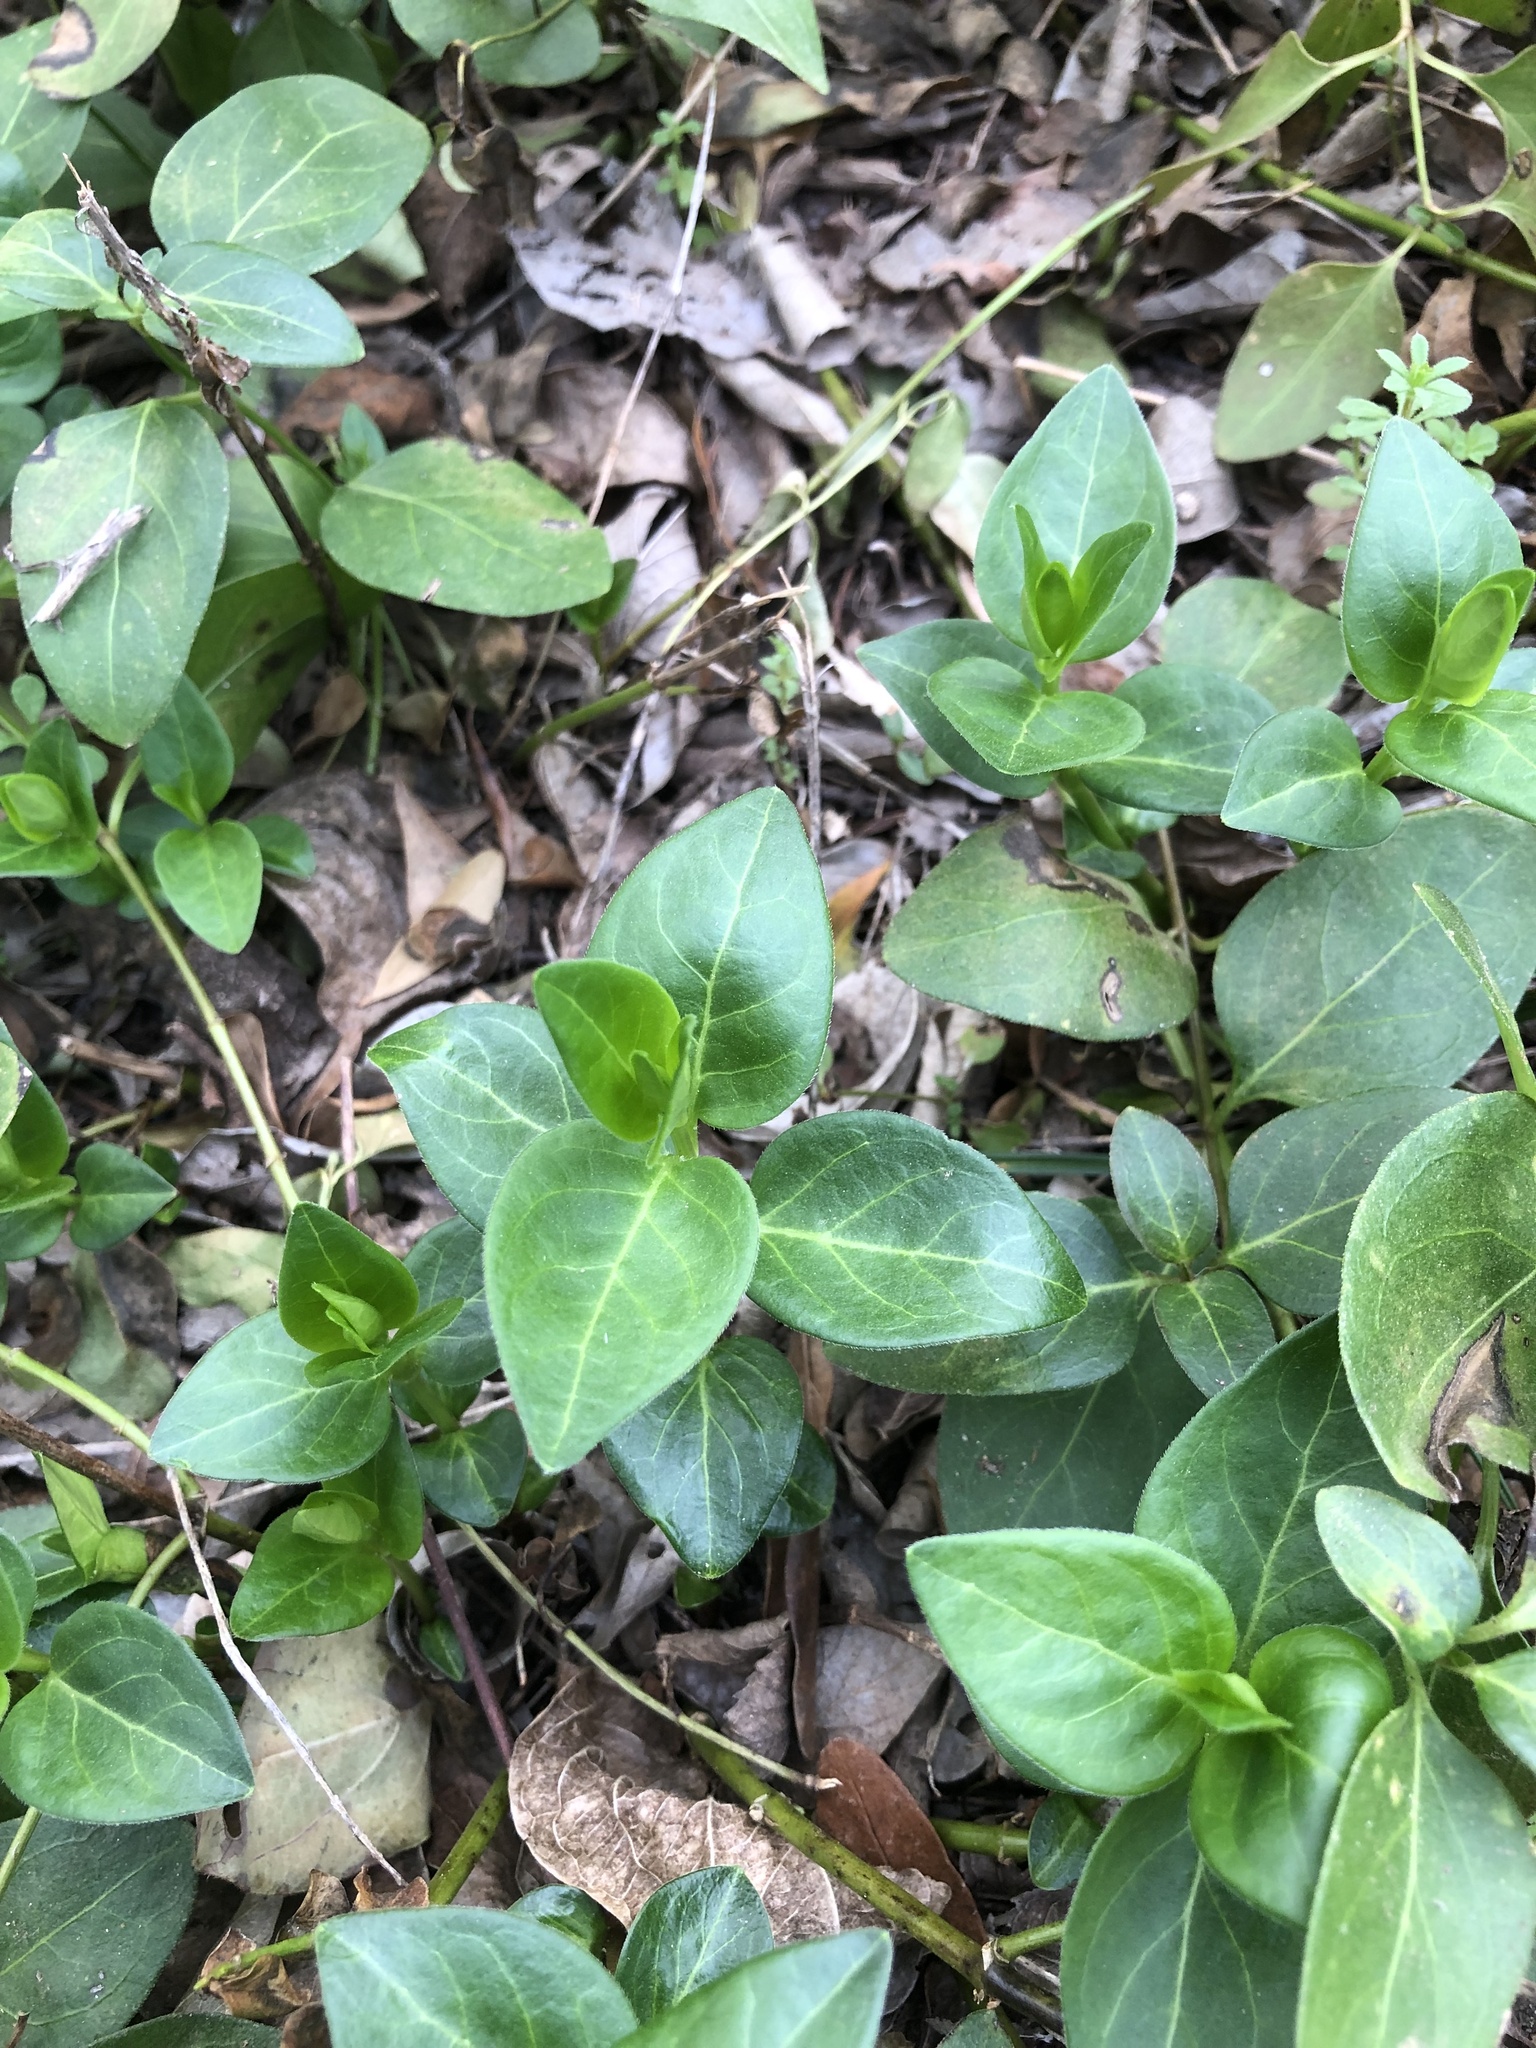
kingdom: Plantae
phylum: Tracheophyta
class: Magnoliopsida
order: Gentianales
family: Apocynaceae
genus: Vinca
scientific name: Vinca major
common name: Greater periwinkle
